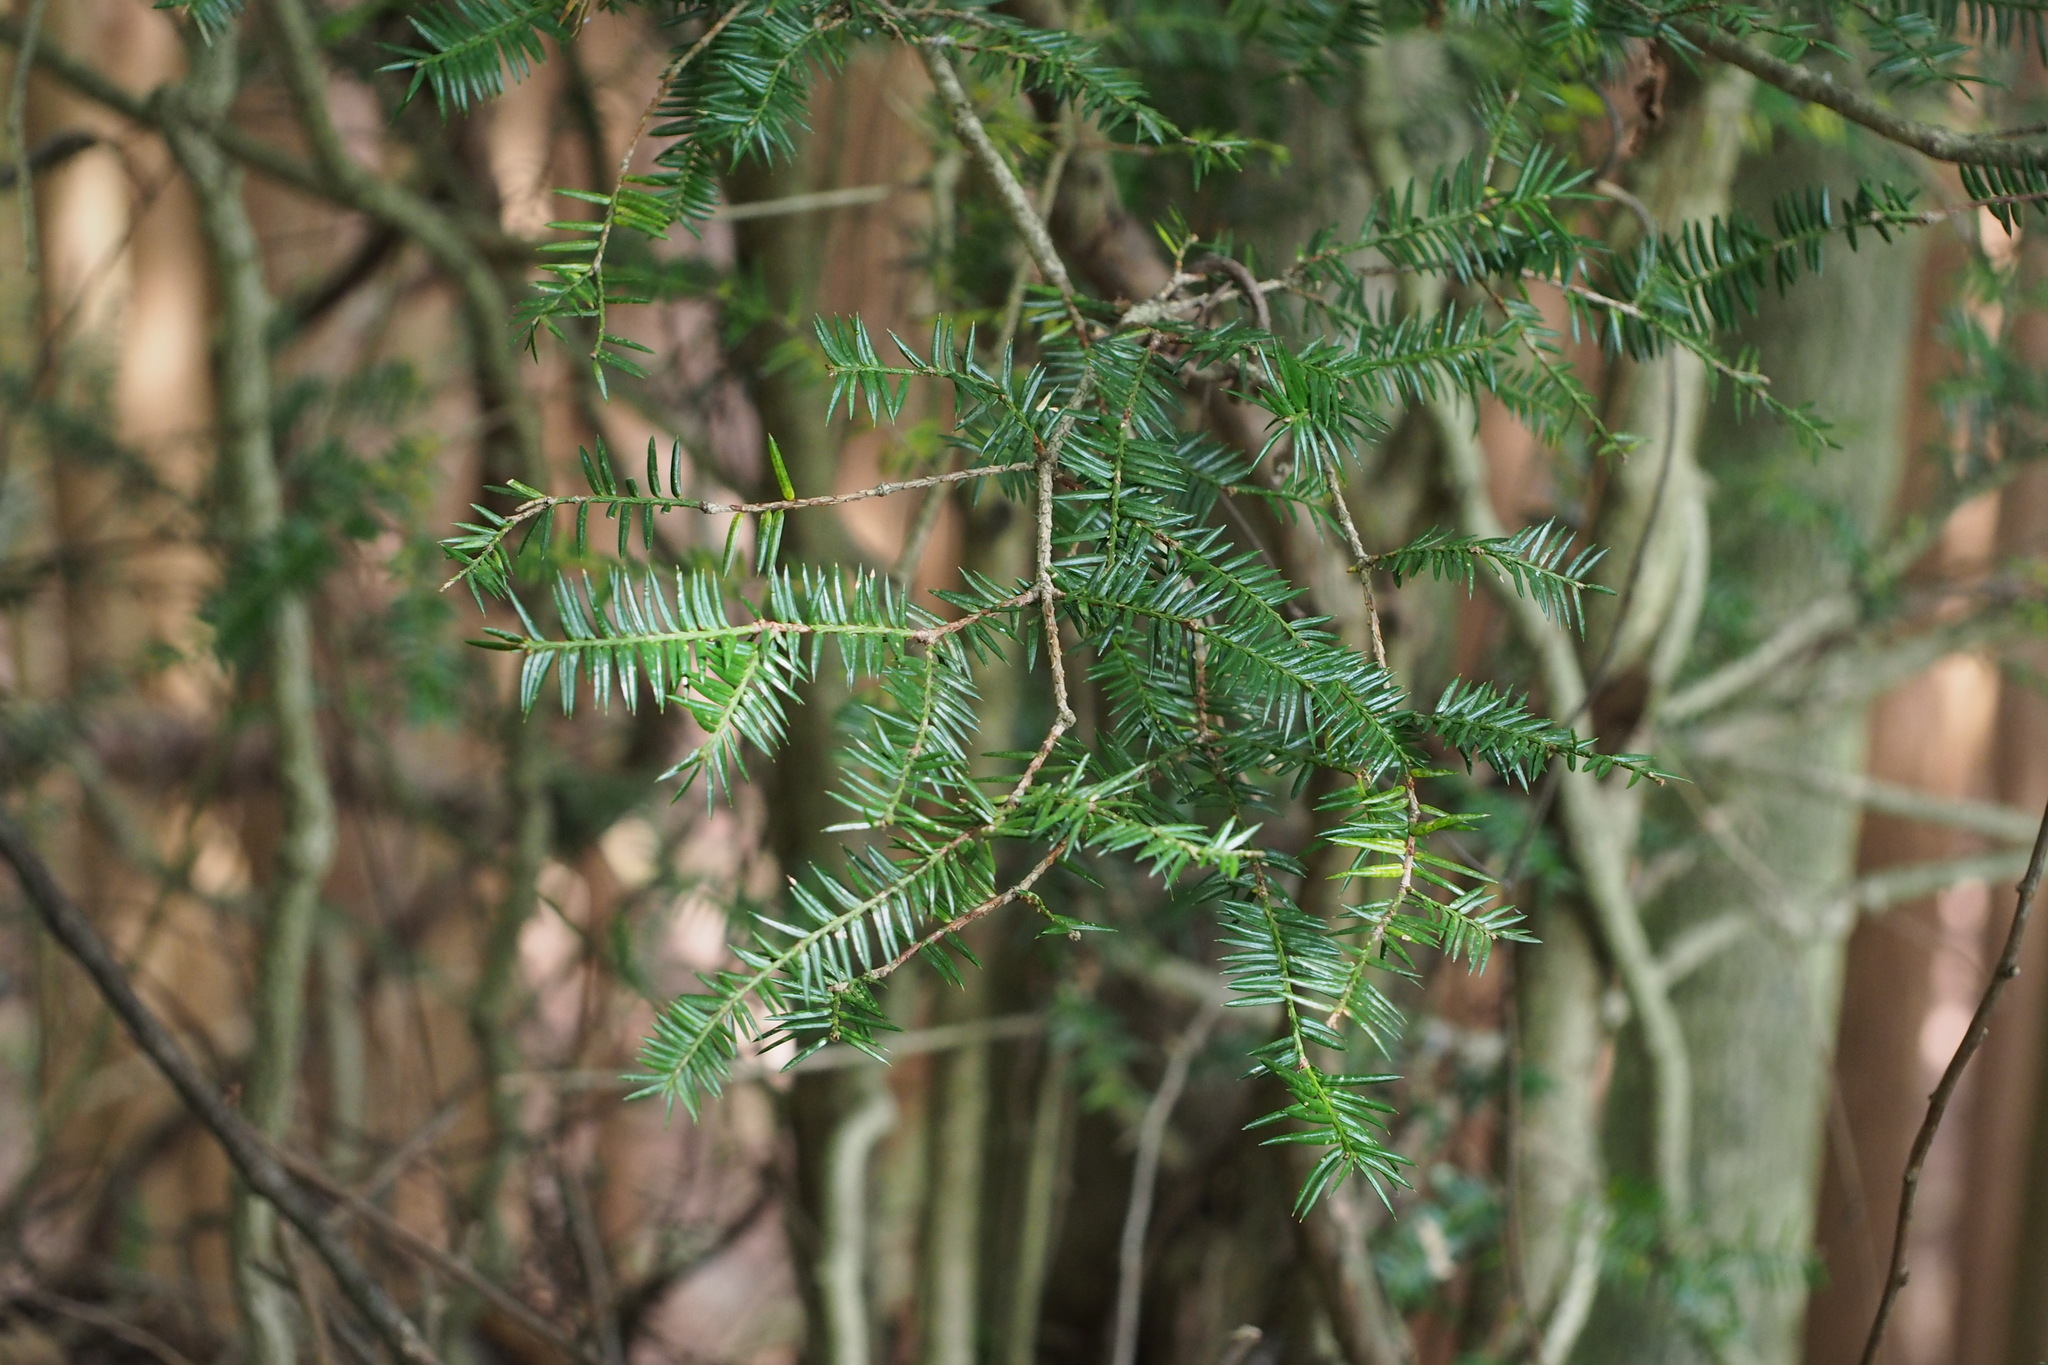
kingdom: Plantae
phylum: Tracheophyta
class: Pinopsida
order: Pinales
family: Taxaceae
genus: Torreya
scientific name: Torreya nucifera
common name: Japanese nutmeg tree
